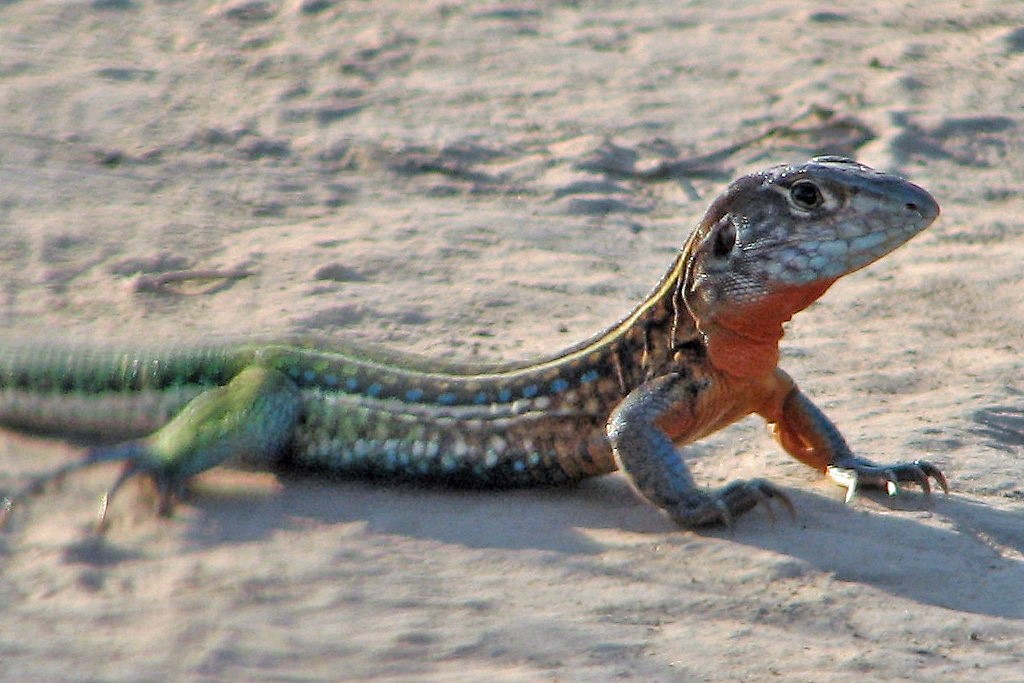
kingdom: Animalia
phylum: Chordata
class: Squamata
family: Teiidae
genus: Teius
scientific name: Teius teyou
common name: Four-toed tegu
